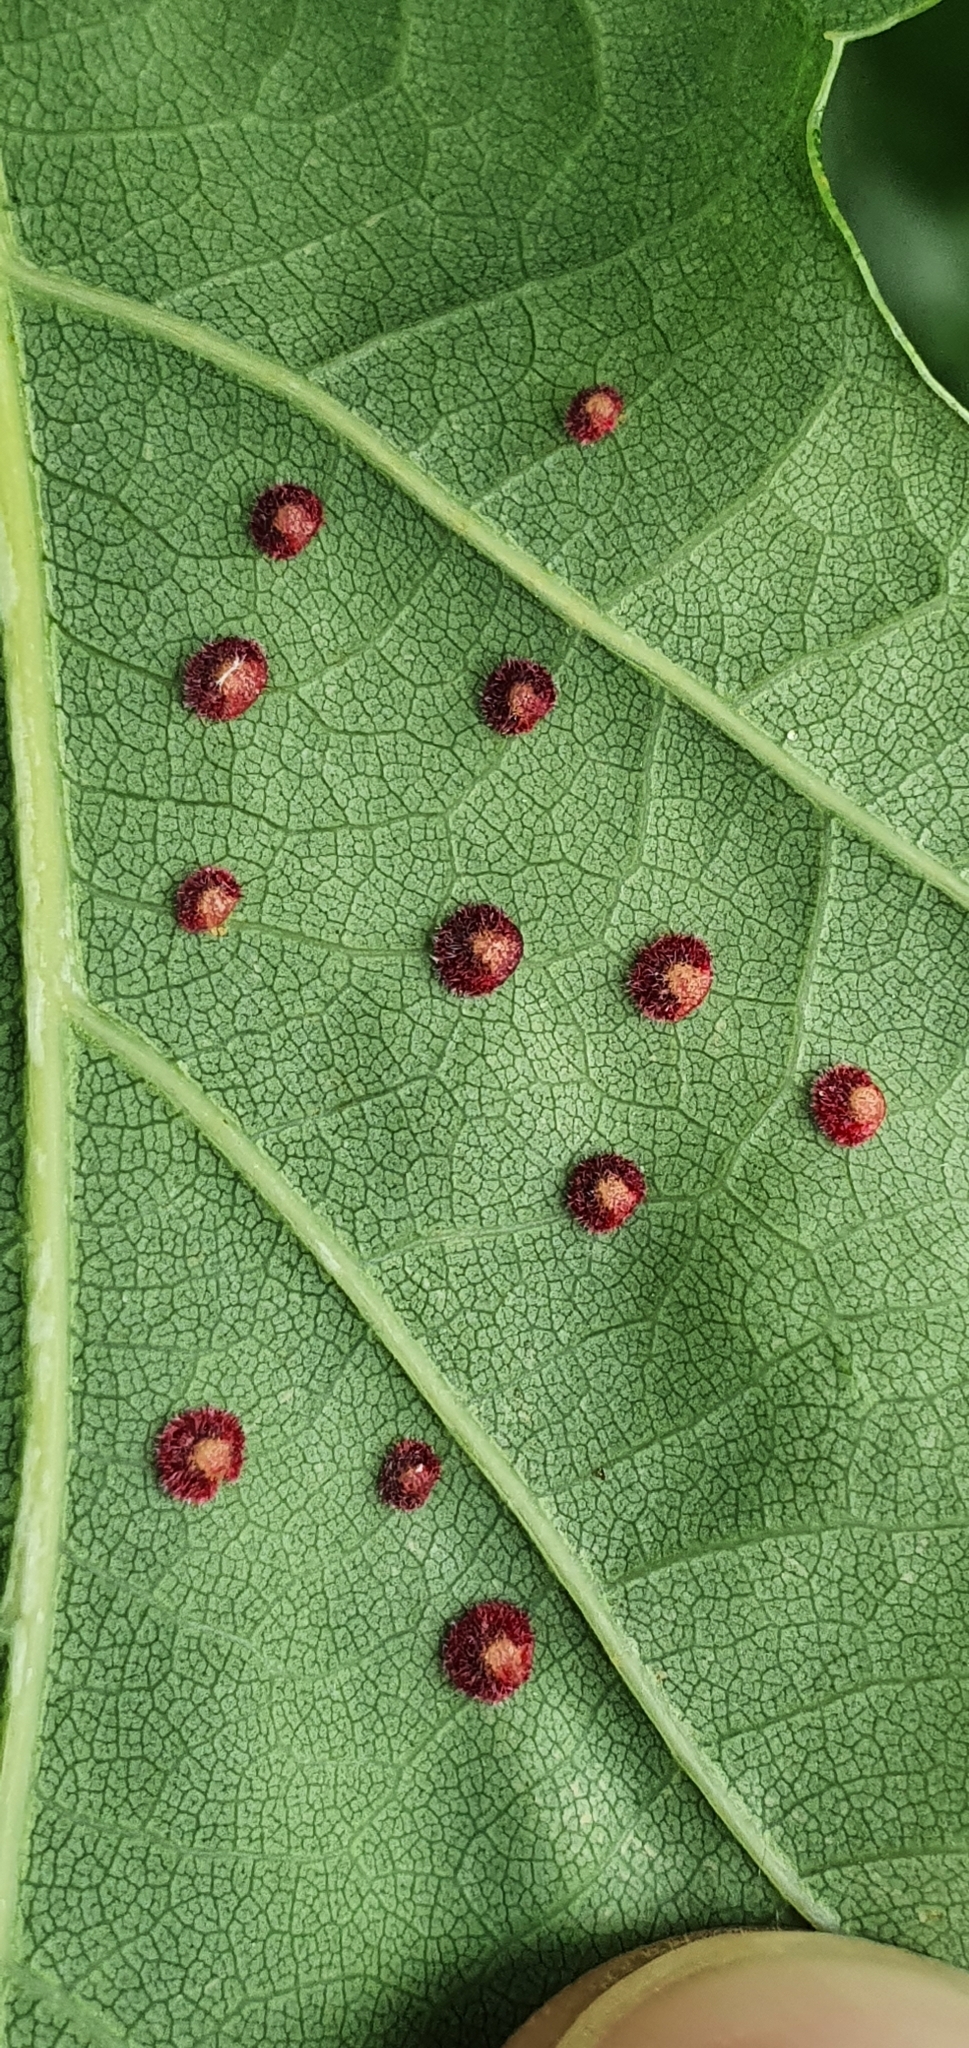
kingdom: Animalia
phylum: Arthropoda
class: Insecta
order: Hymenoptera
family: Cynipidae
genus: Neuroterus
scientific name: Neuroterus quercusbaccarum
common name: Common spangle gall
